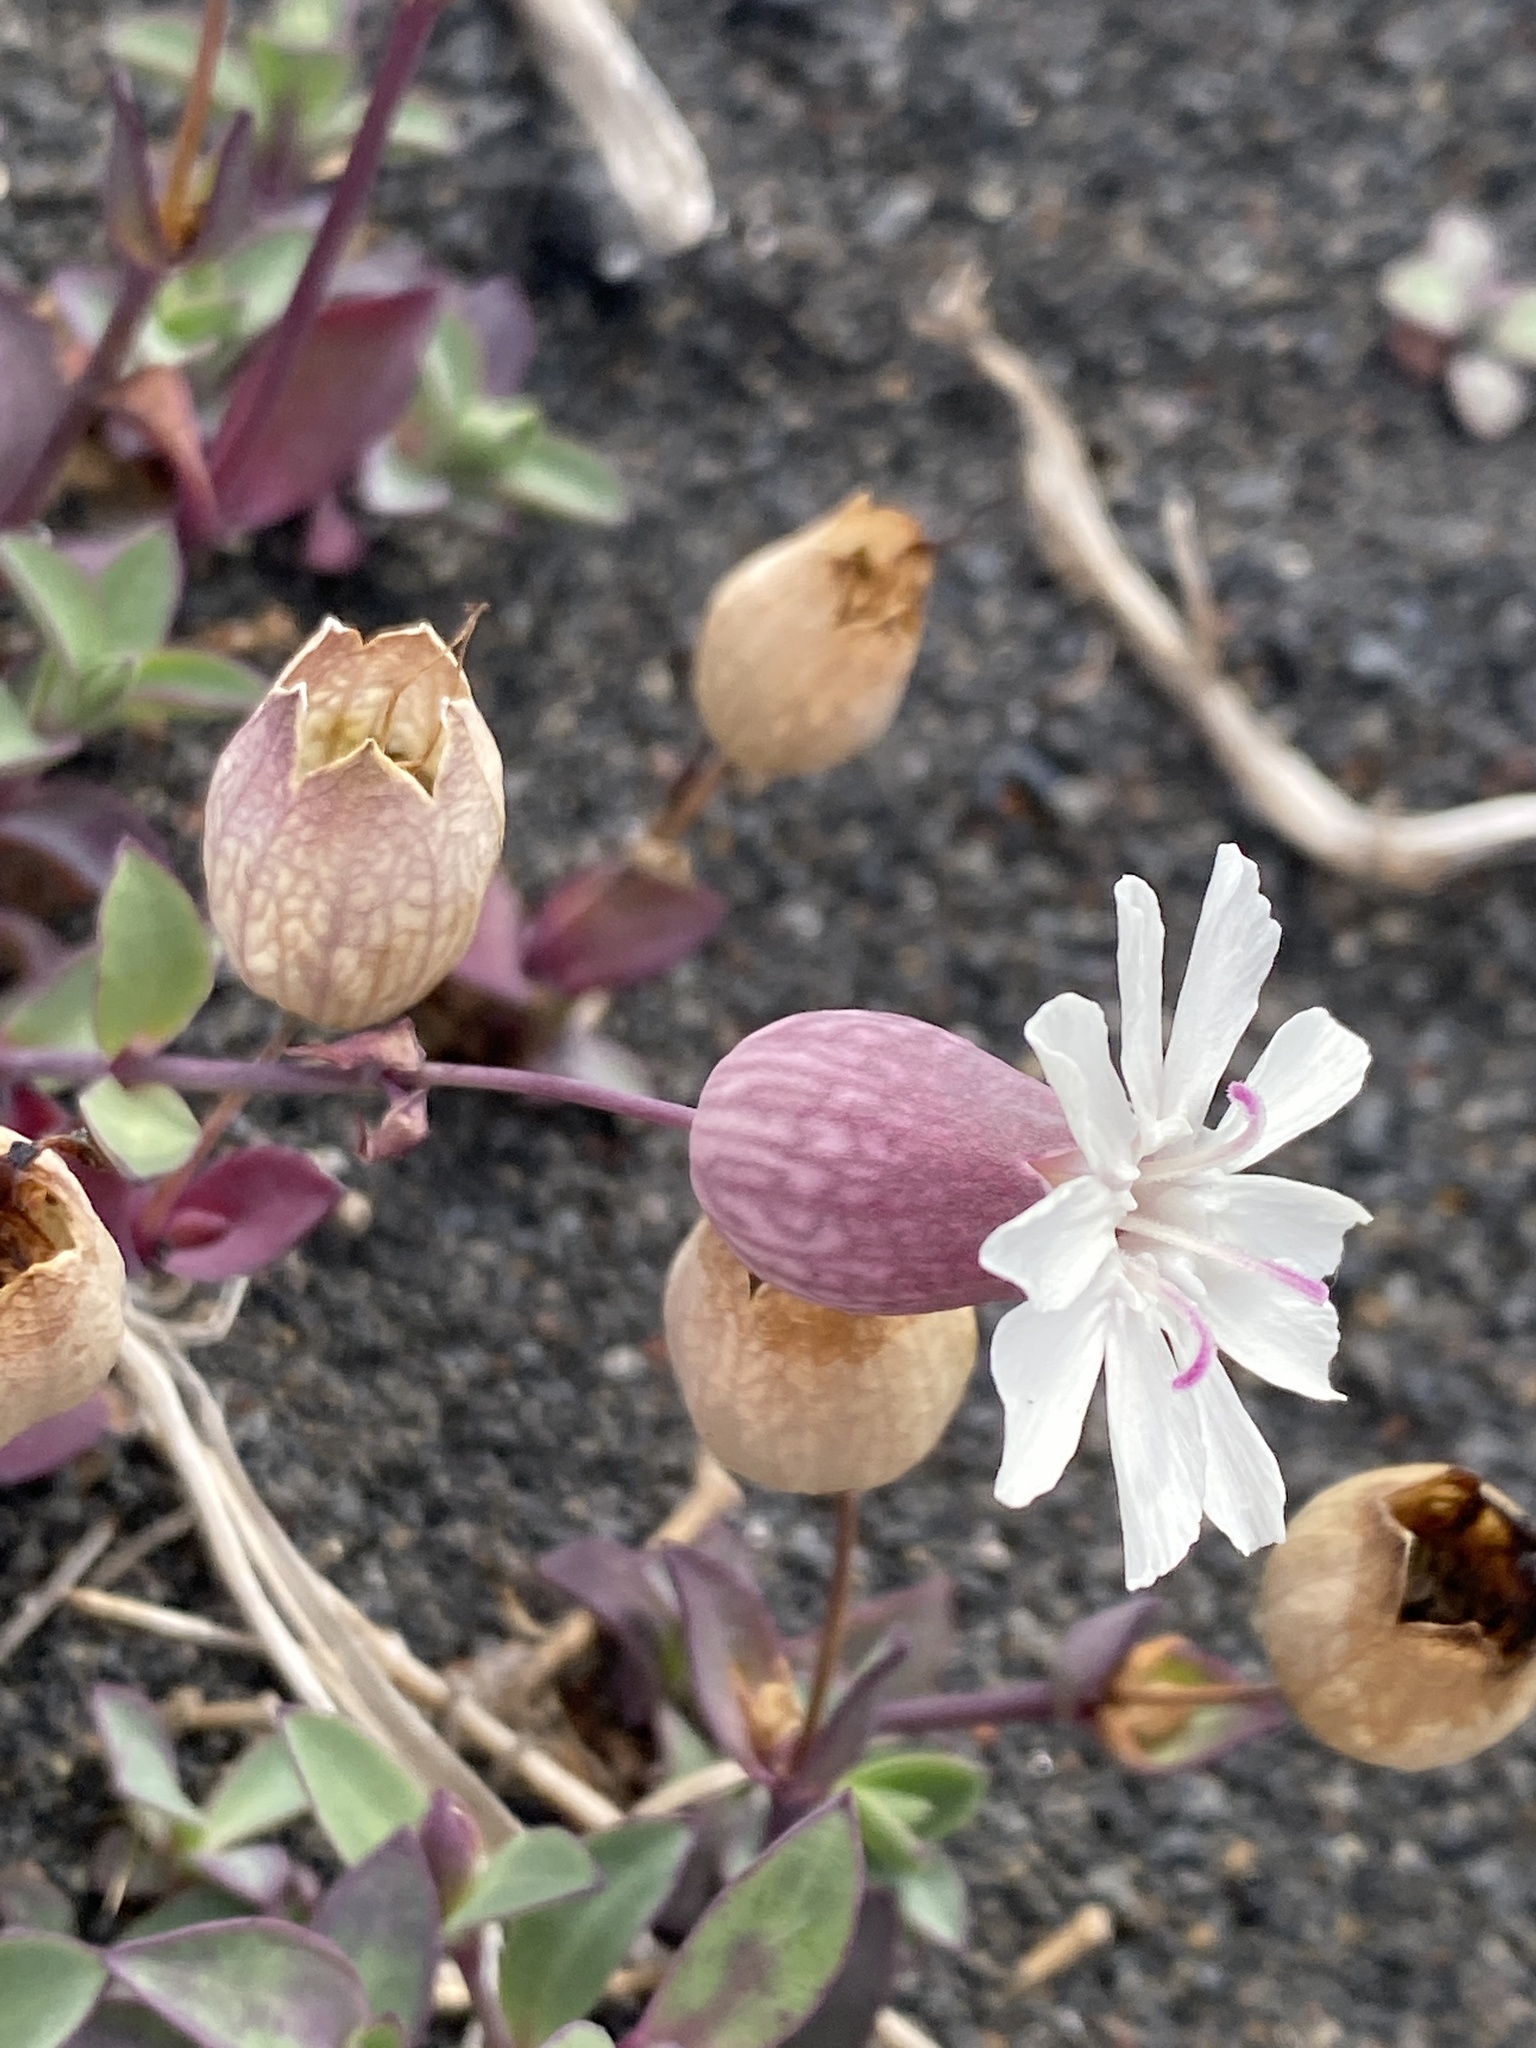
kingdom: Plantae
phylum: Tracheophyta
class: Magnoliopsida
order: Caryophyllales
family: Caryophyllaceae
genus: Silene
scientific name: Silene uniflora
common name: Sea campion
